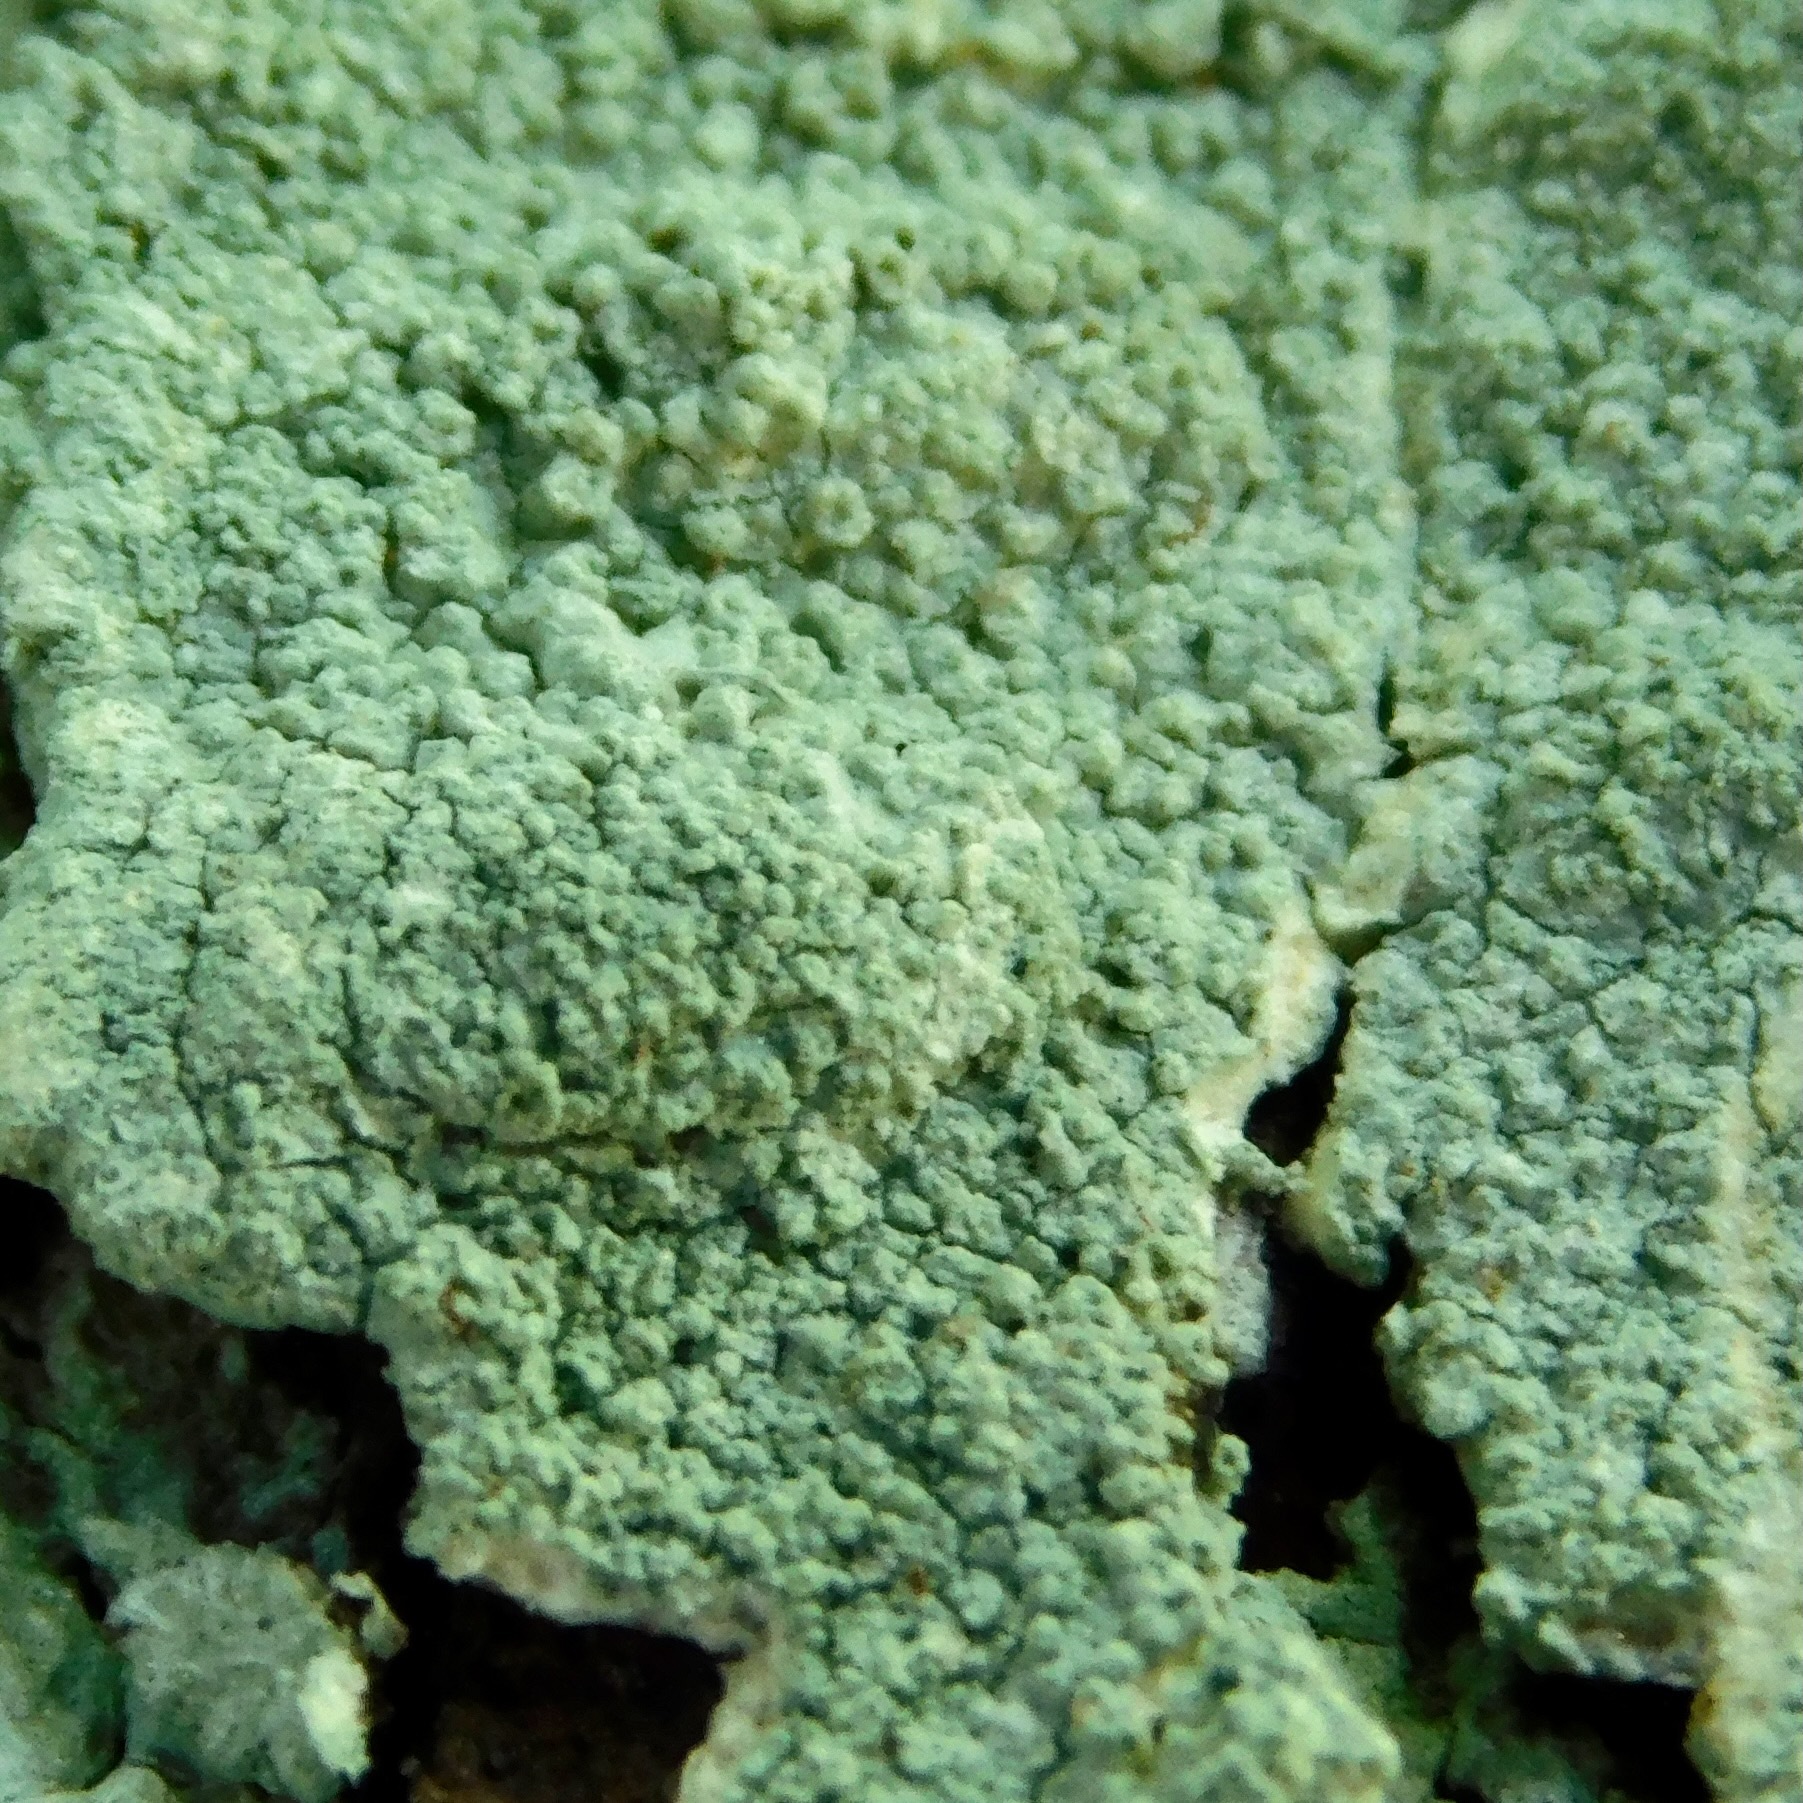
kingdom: Fungi
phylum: Ascomycota
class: Lecanoromycetes
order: Pertusariales
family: Pertusariaceae
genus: Lepra
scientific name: Lepra pustulata
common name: Pustule crust lichen
